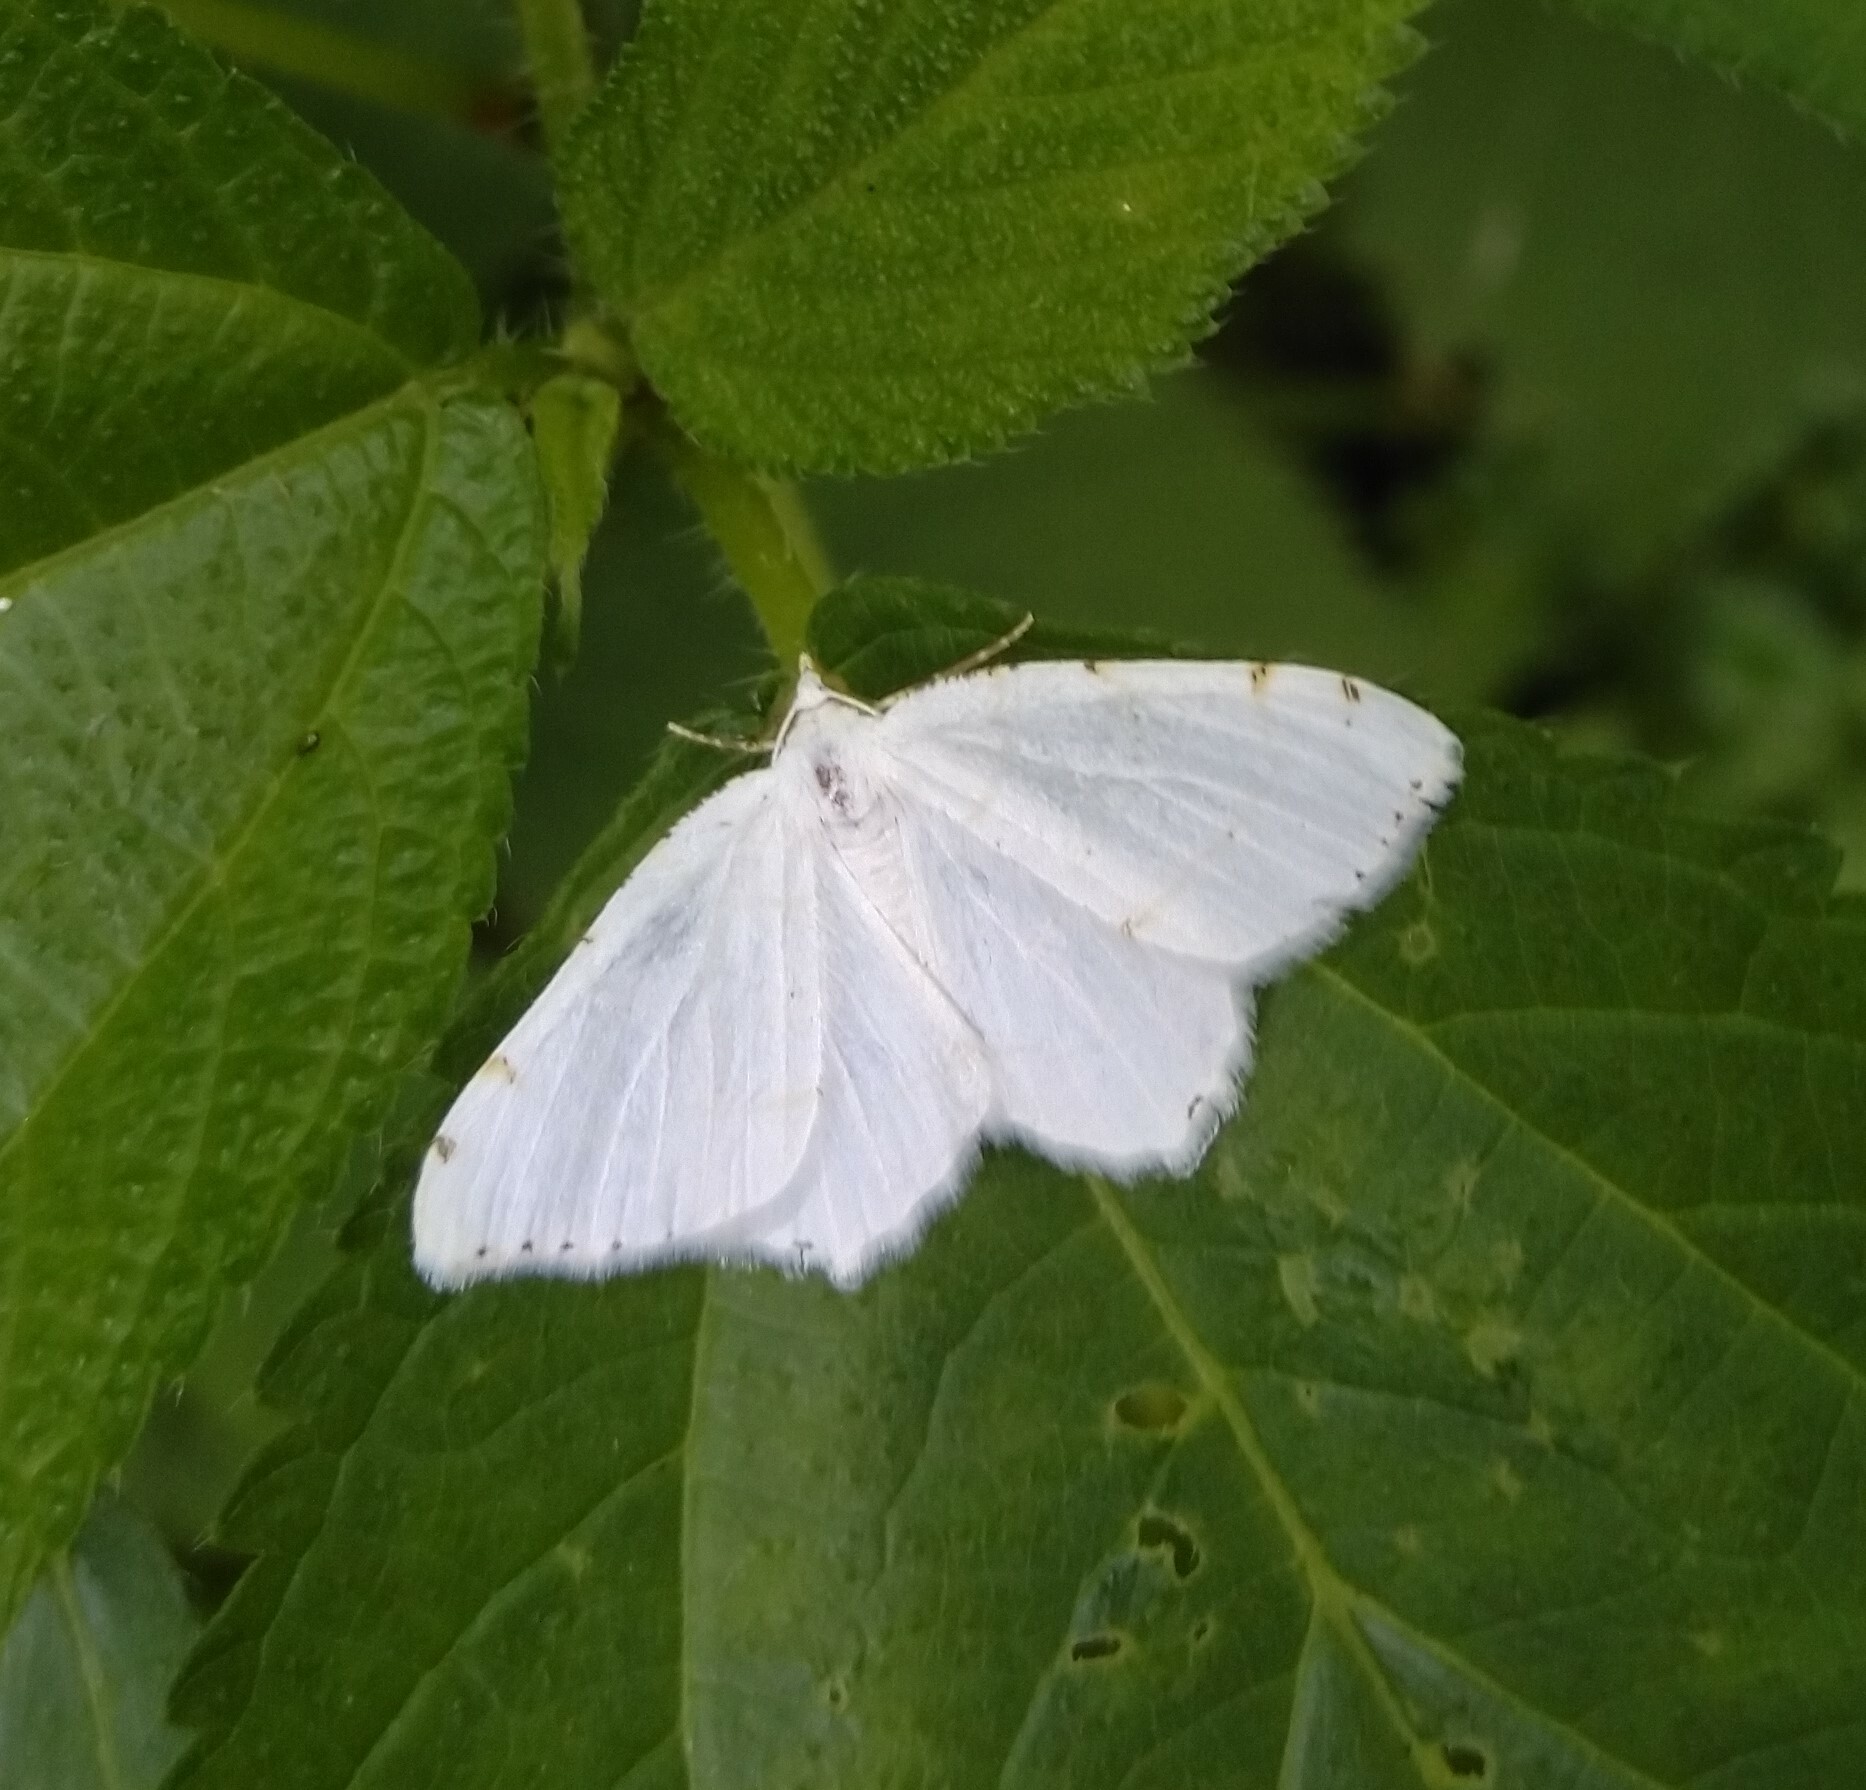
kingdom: Animalia
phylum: Arthropoda
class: Insecta
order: Lepidoptera
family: Geometridae
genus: Macaria
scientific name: Macaria pustularia
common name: Lesser maple spanworm moth
